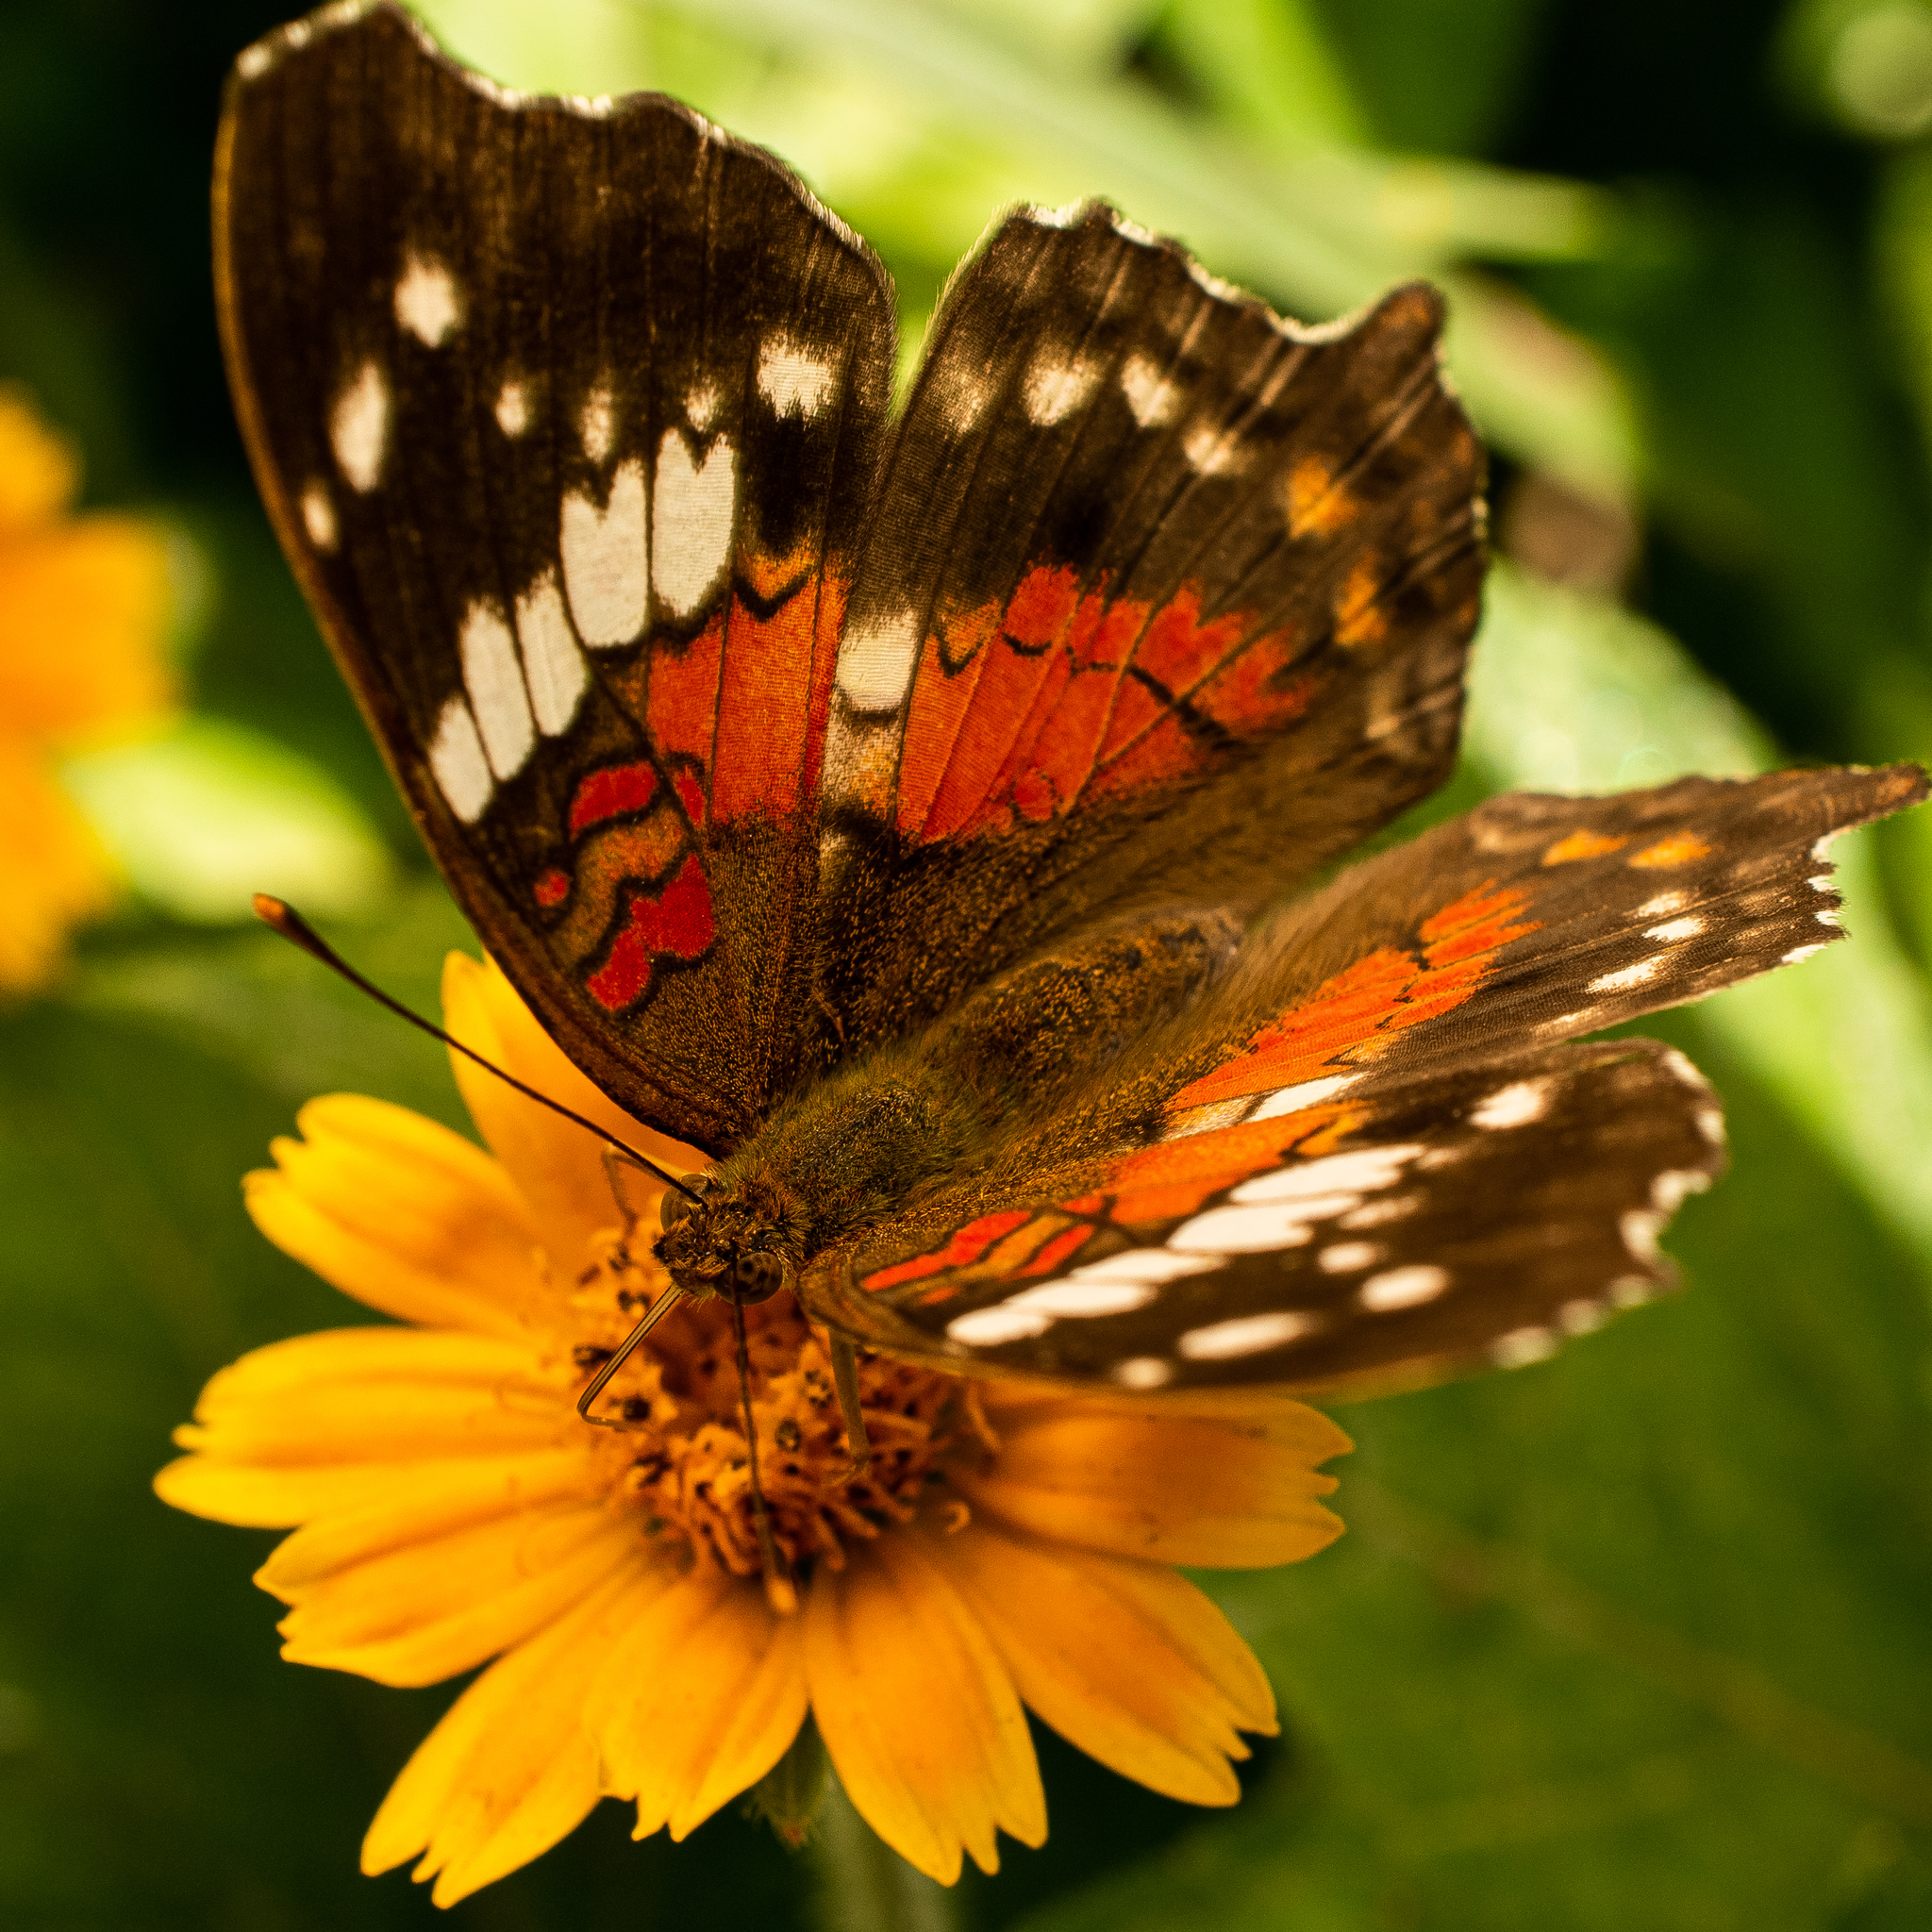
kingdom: Animalia
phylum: Arthropoda
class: Insecta
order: Lepidoptera
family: Nymphalidae
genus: Anartia
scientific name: Anartia amathea
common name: Red peacock
